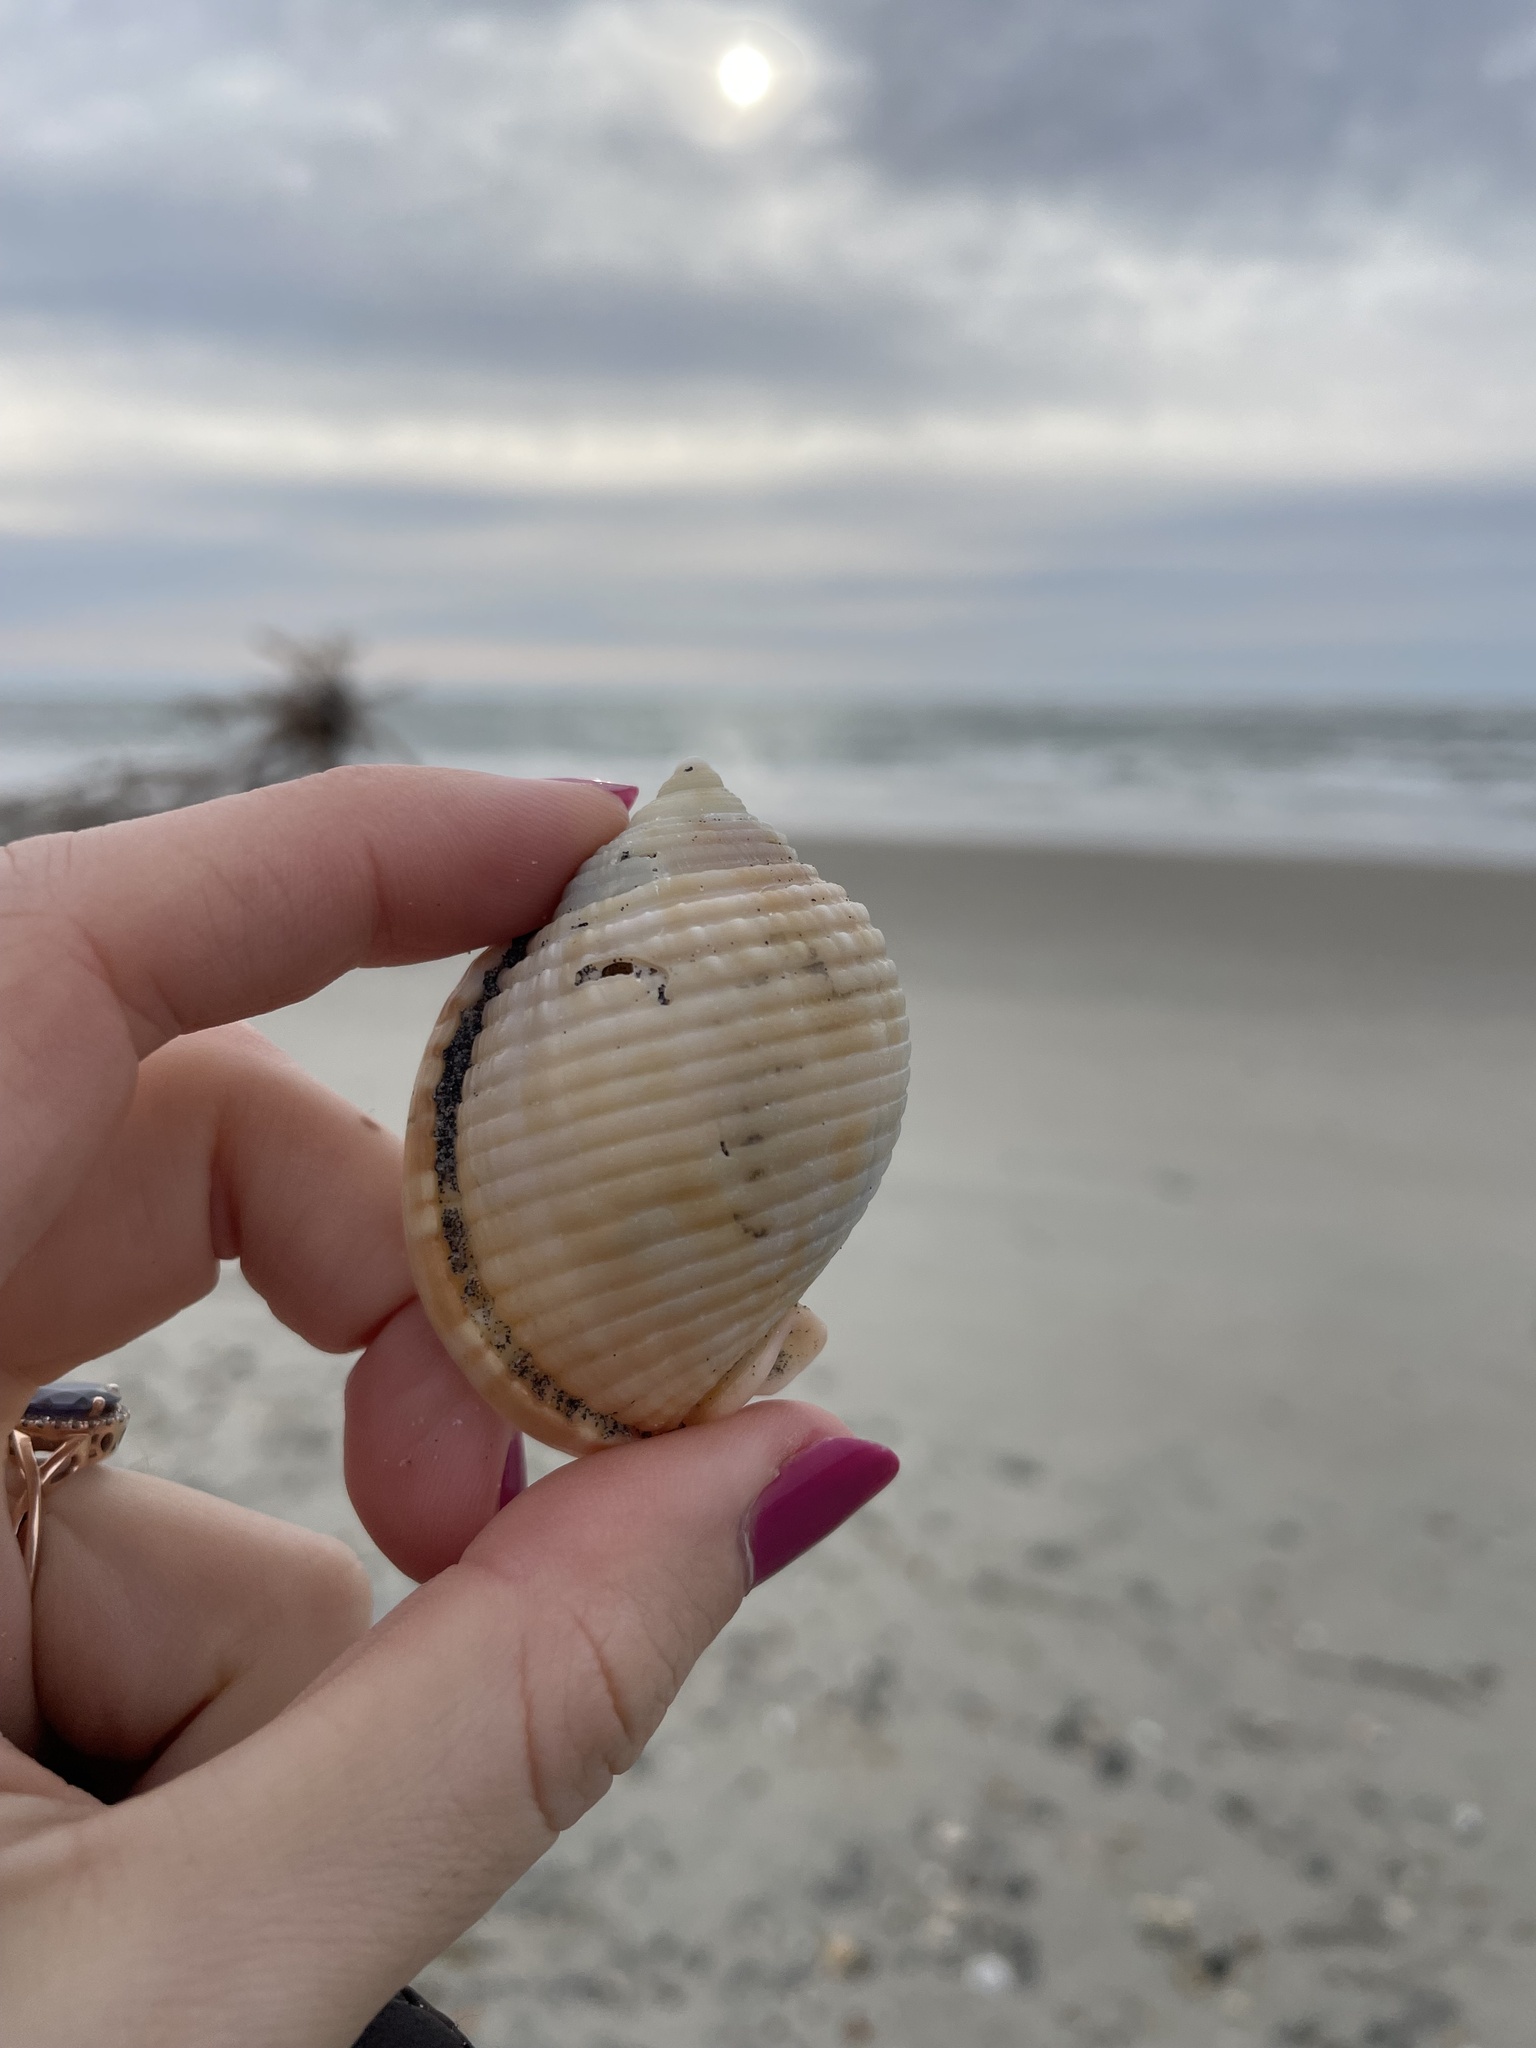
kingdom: Animalia
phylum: Mollusca
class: Gastropoda
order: Littorinimorpha
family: Cassidae
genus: Semicassis
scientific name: Semicassis granulata
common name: Scotch bonnet
